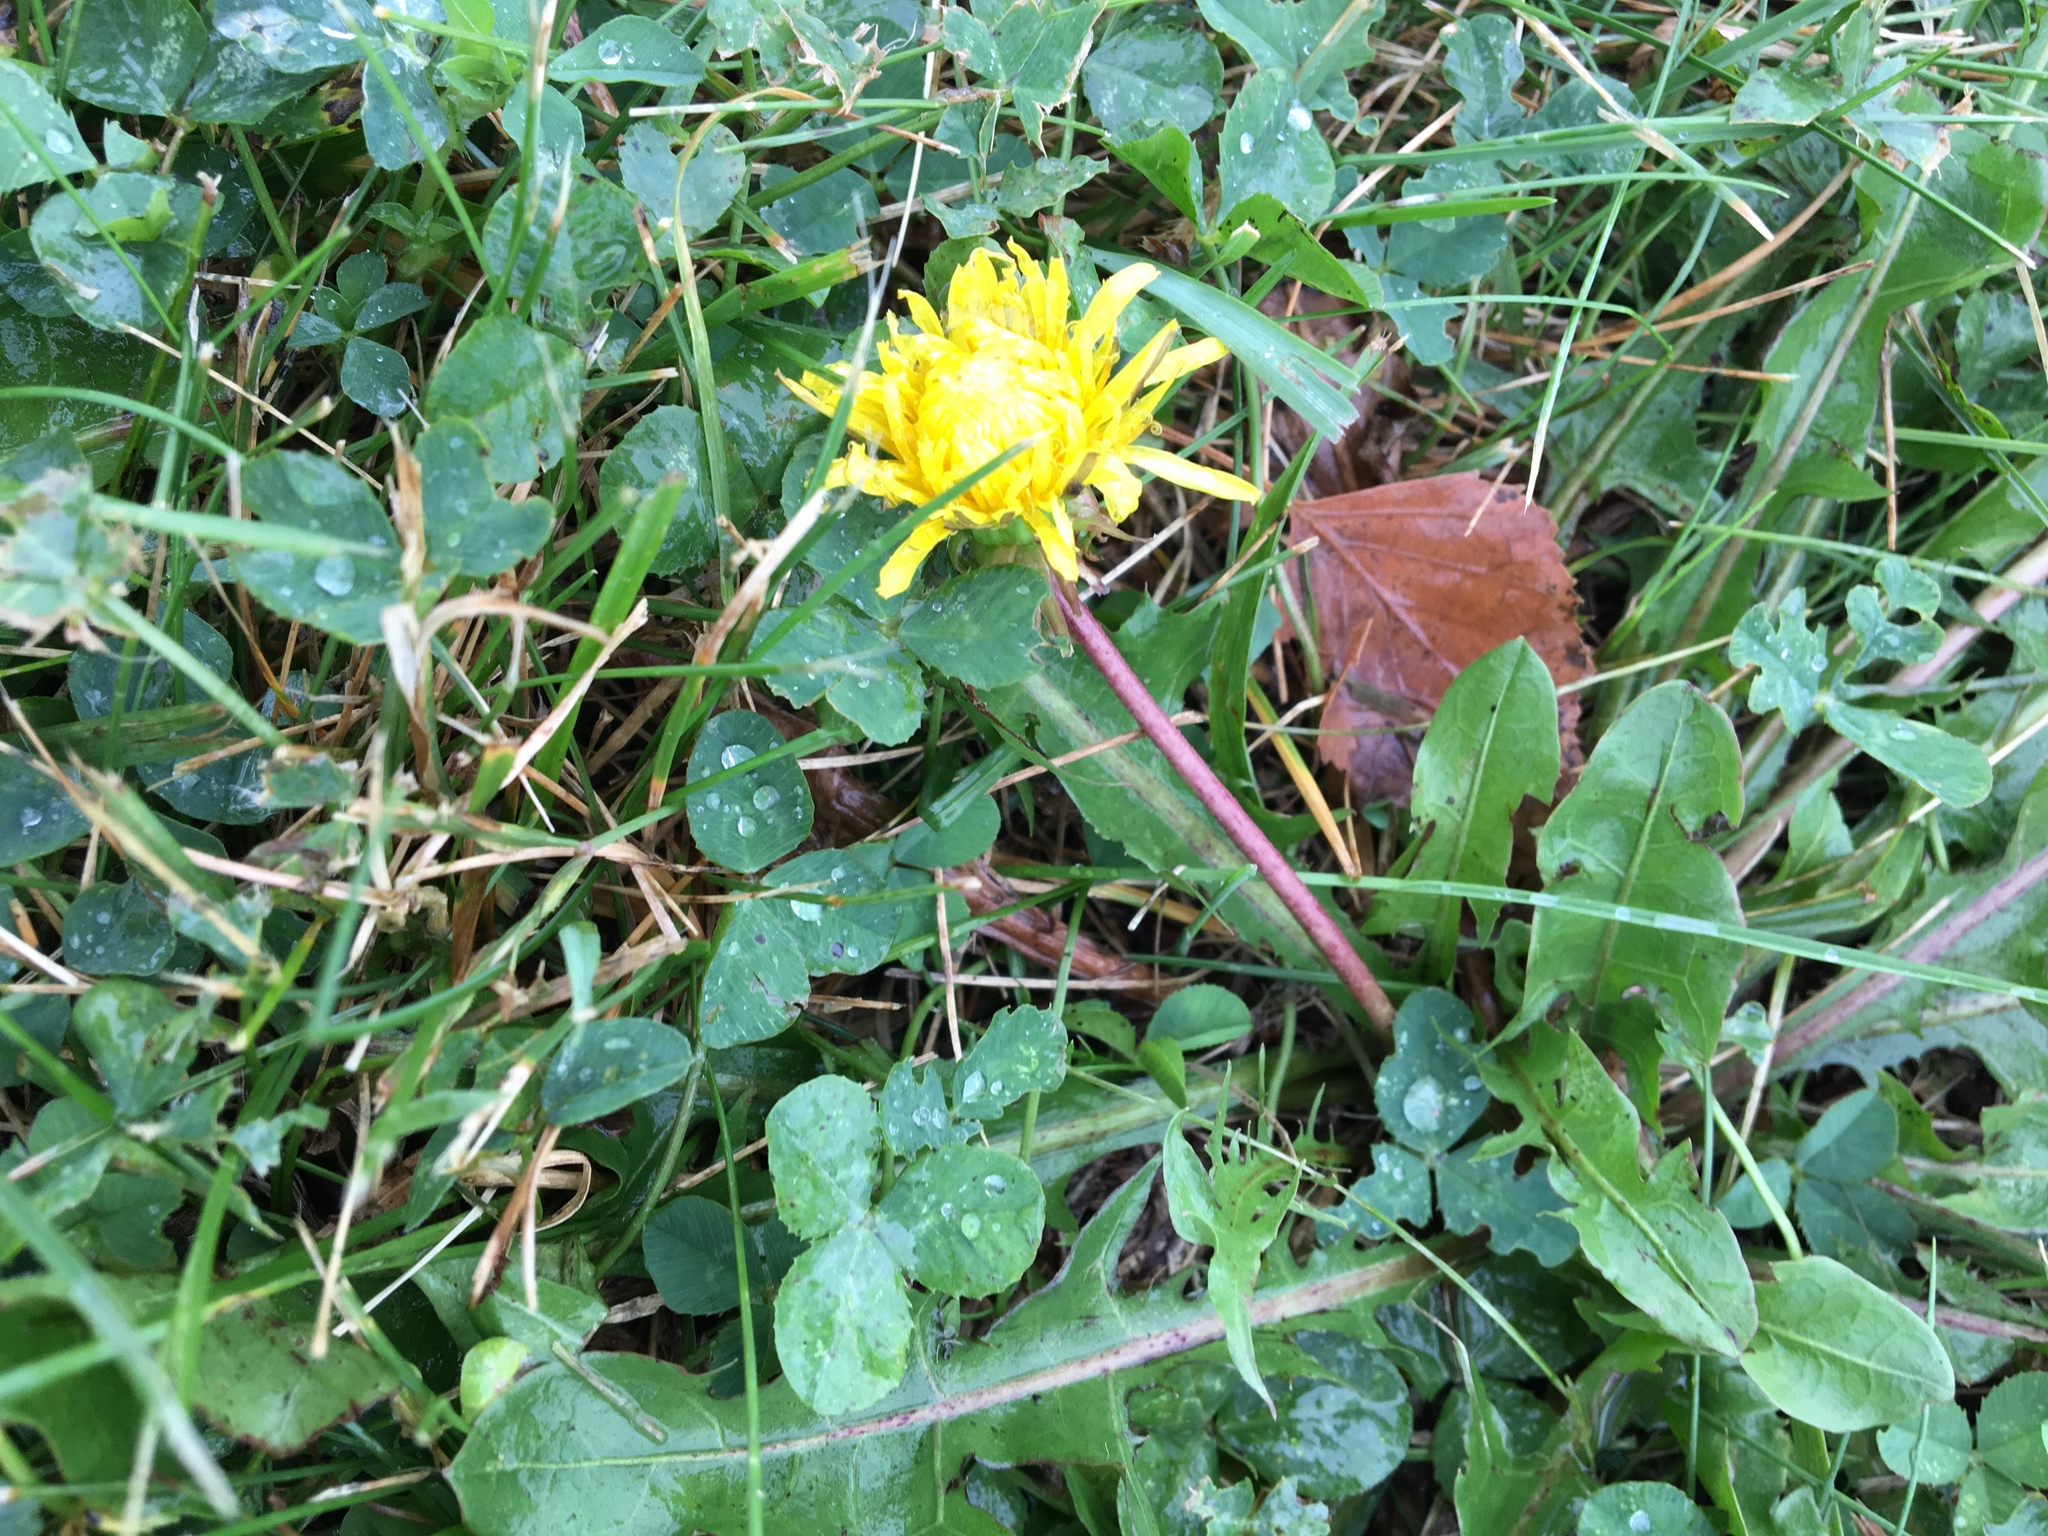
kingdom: Plantae
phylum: Tracheophyta
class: Magnoliopsida
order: Asterales
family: Asteraceae
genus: Taraxacum
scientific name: Taraxacum officinale
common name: Common dandelion
